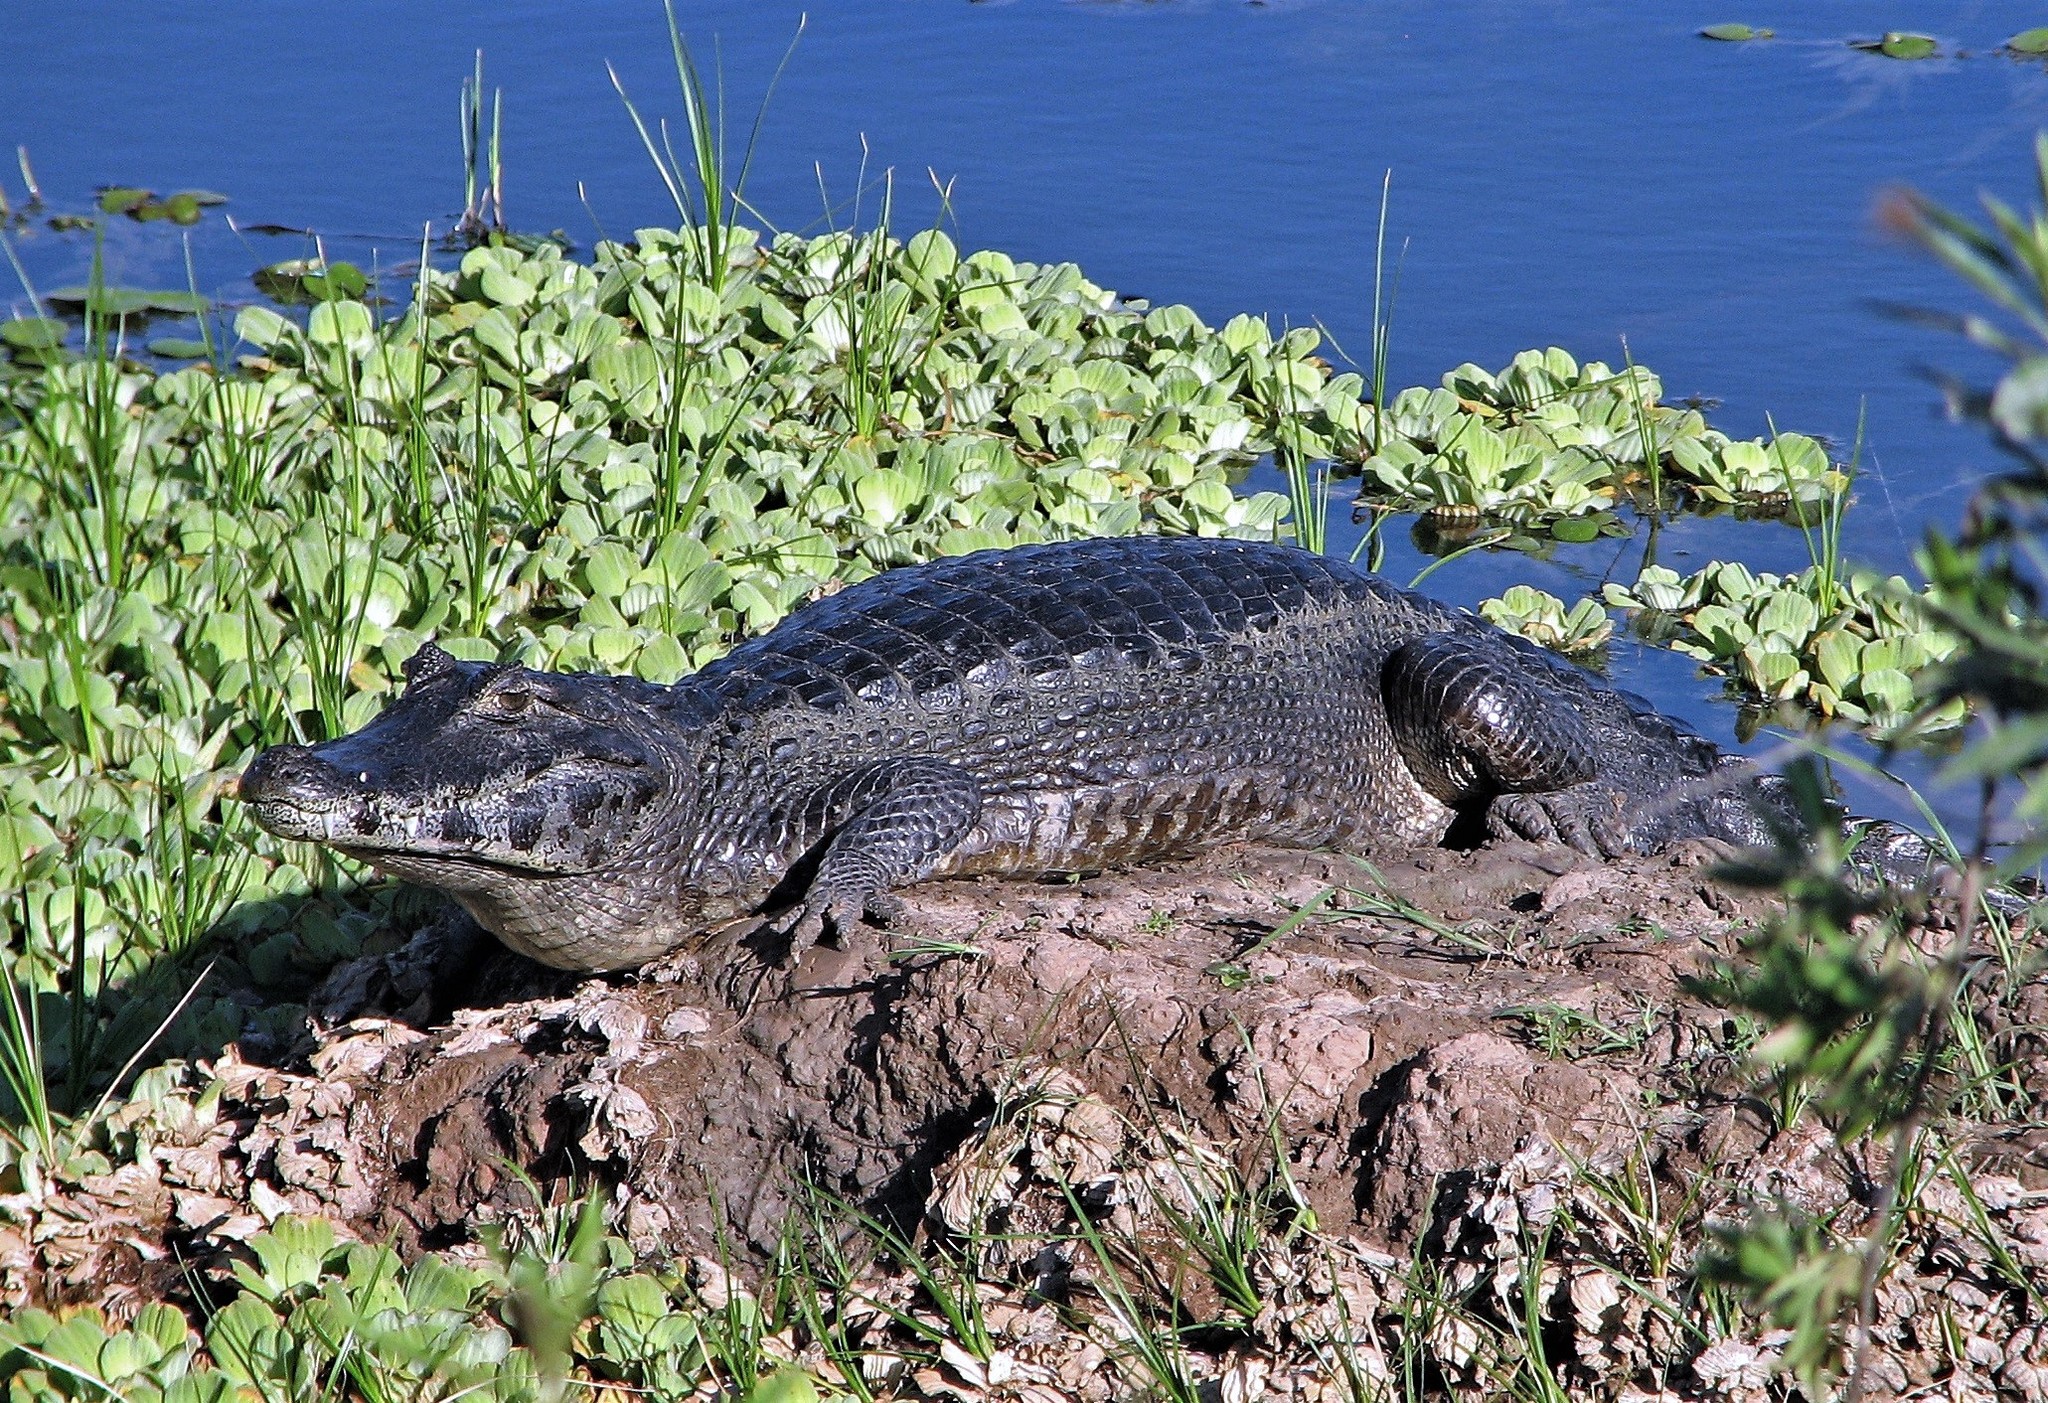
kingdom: Animalia
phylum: Chordata
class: Crocodylia
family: Alligatoridae
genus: Caiman
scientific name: Caiman yacare
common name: Yacare caiman
